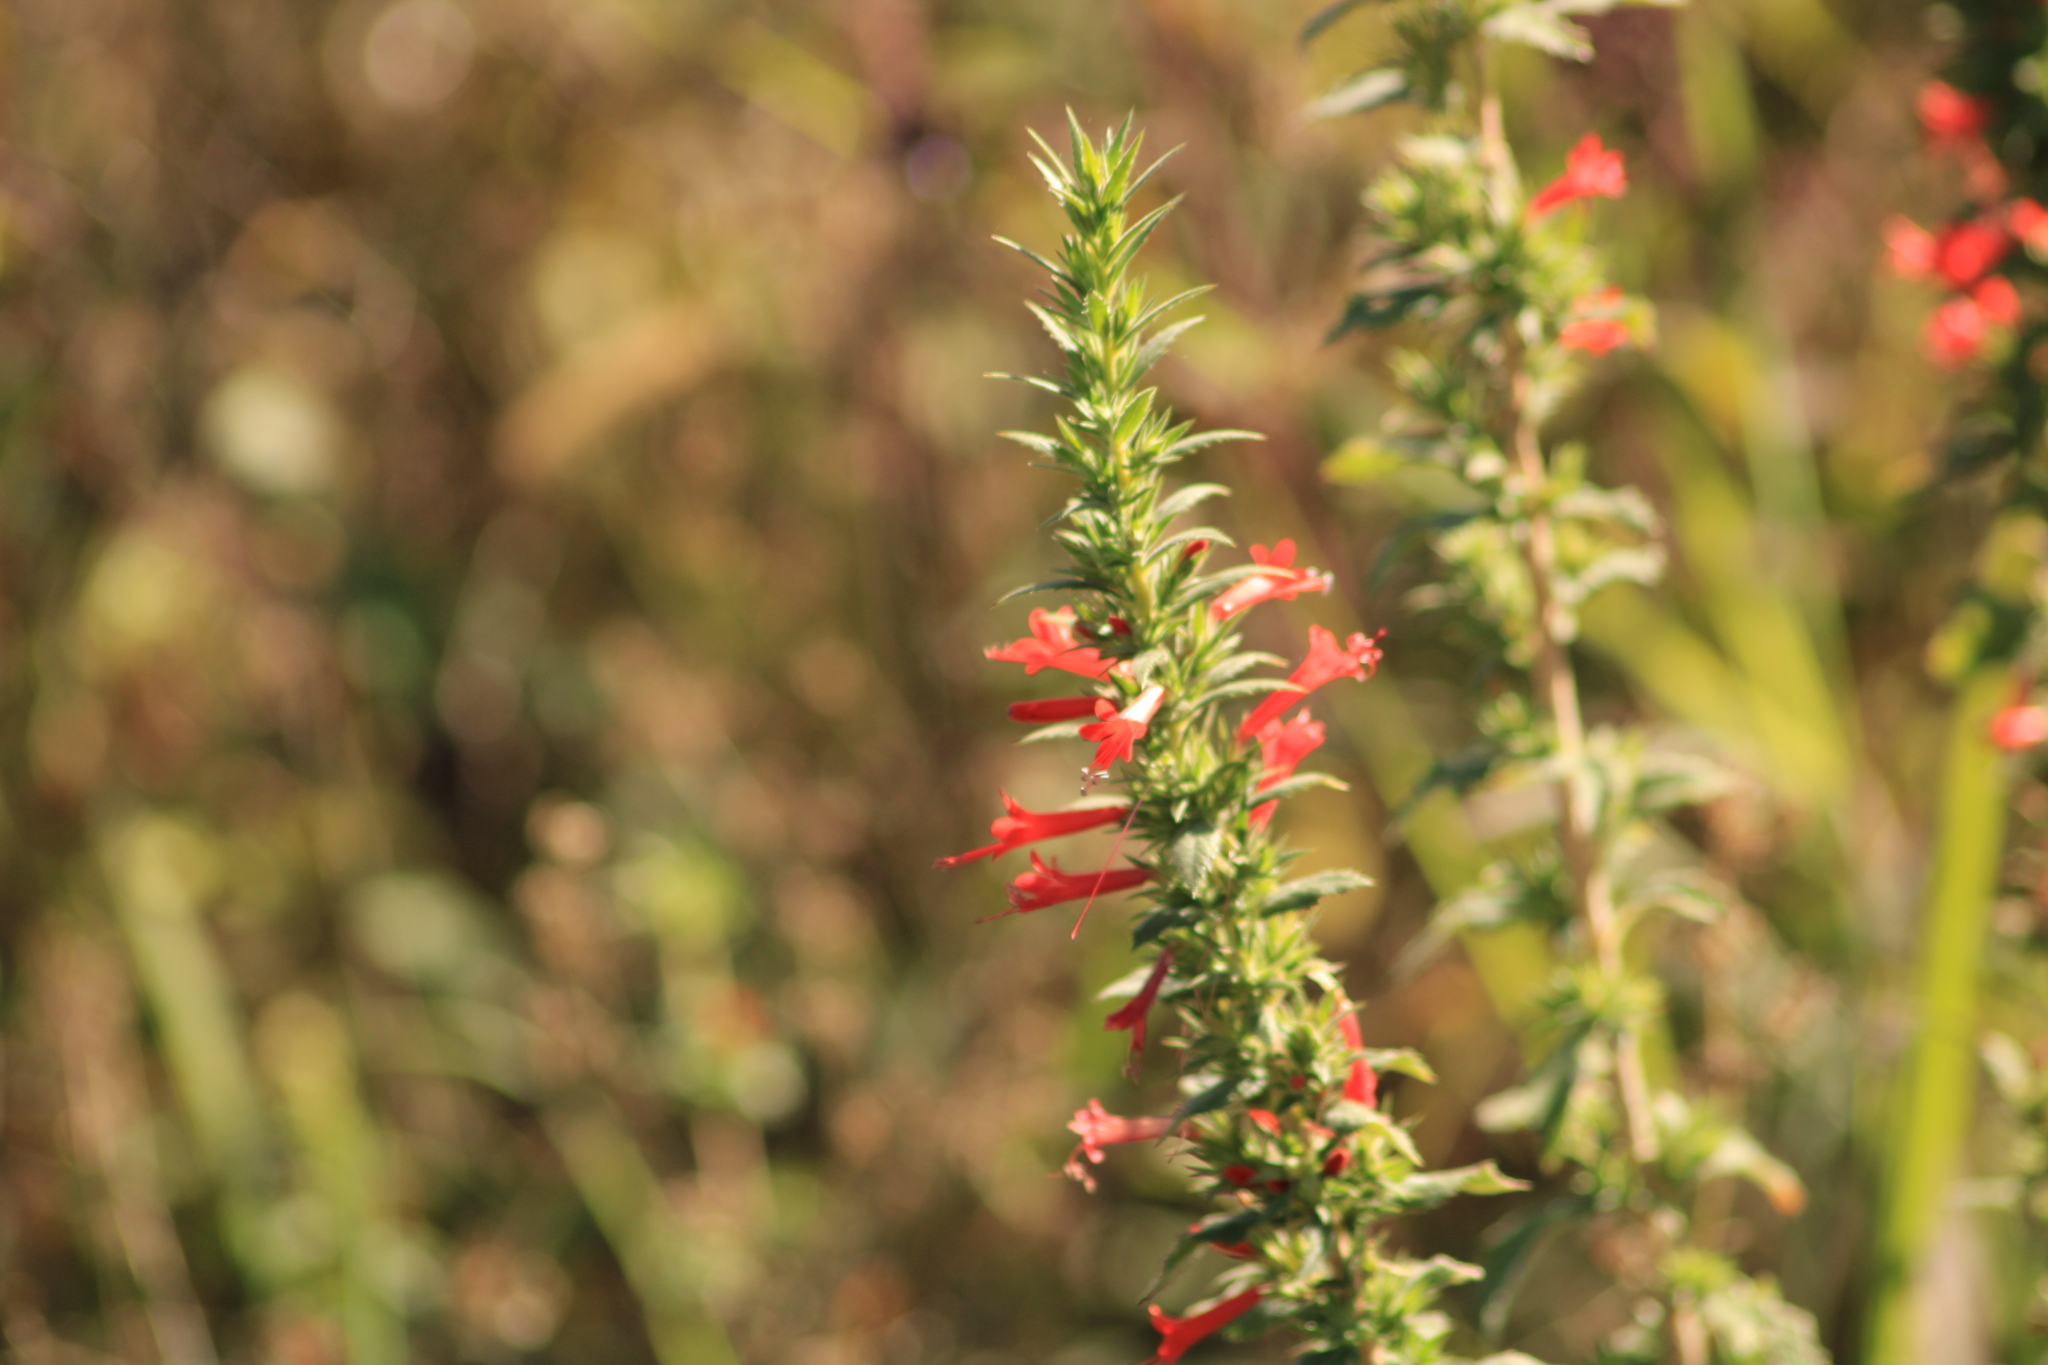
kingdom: Plantae
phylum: Tracheophyta
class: Magnoliopsida
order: Ericales
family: Polemoniaceae
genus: Loeselia
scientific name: Loeselia mexicana
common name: Mexican false calico
